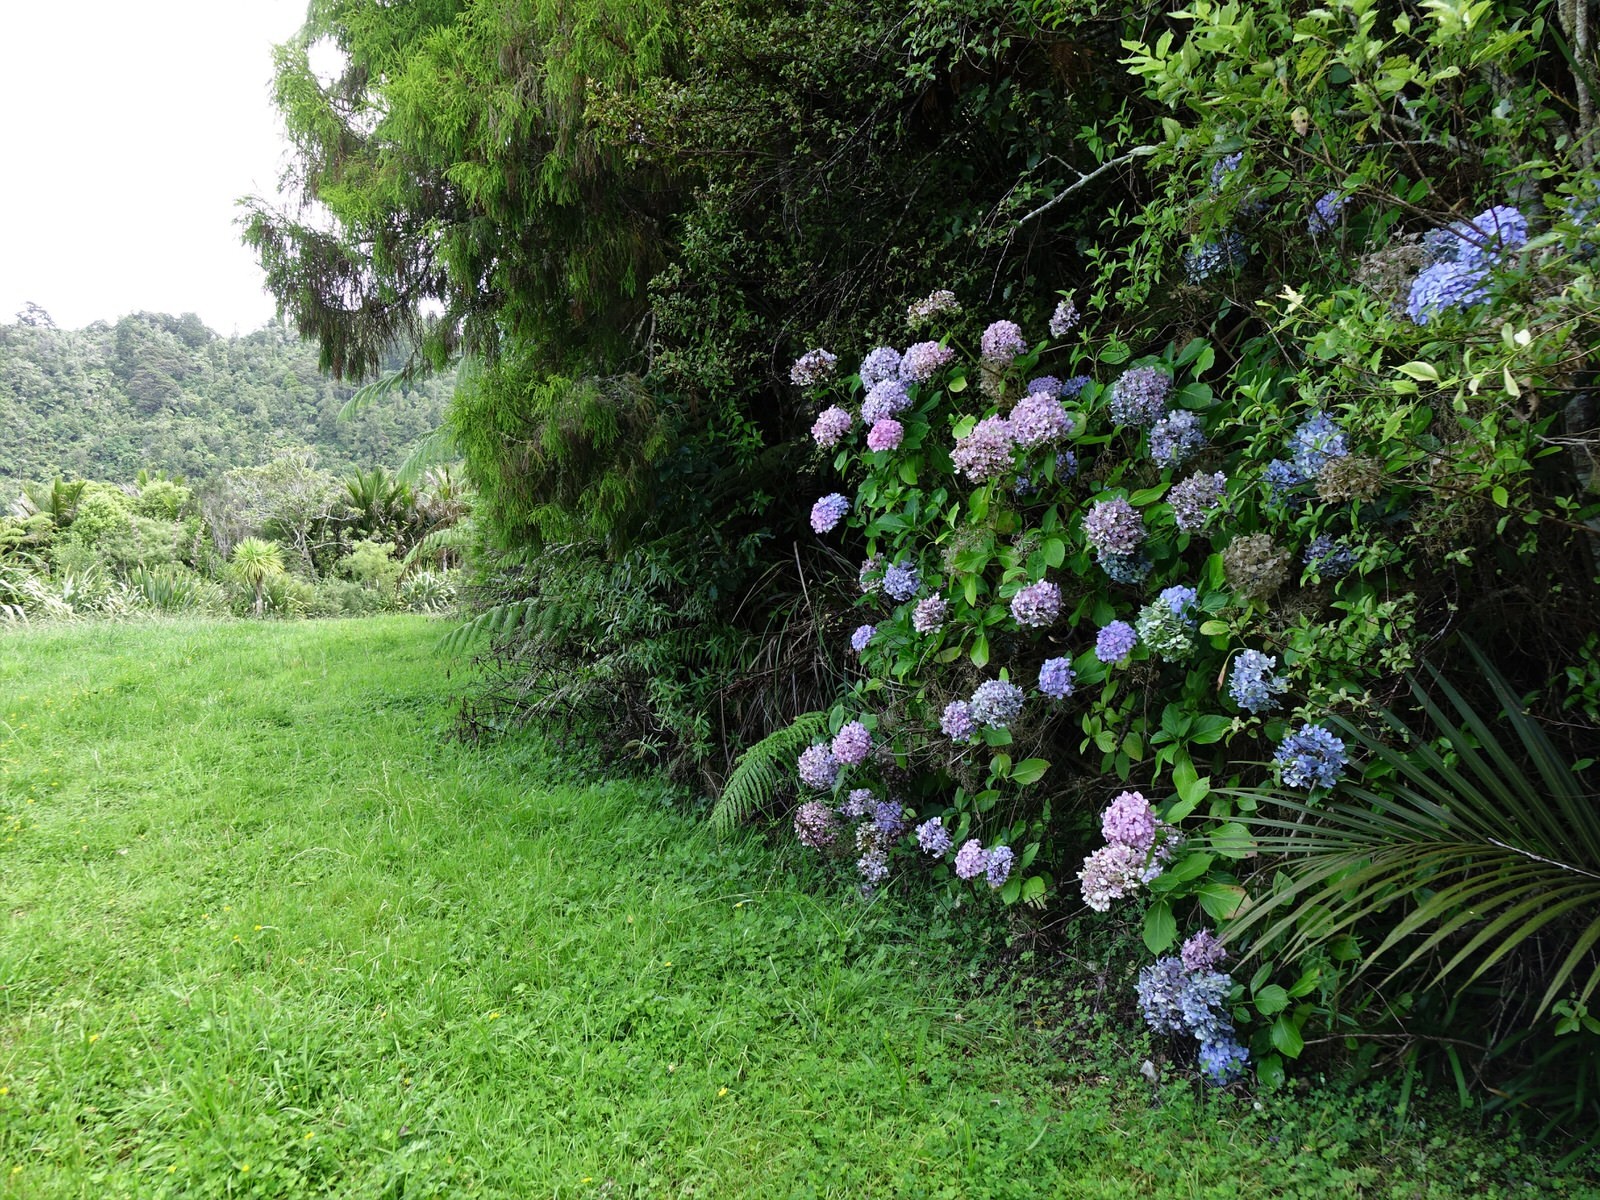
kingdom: Plantae
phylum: Tracheophyta
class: Magnoliopsida
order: Cornales
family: Hydrangeaceae
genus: Hydrangea
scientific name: Hydrangea macrophylla
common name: Hydrangea
